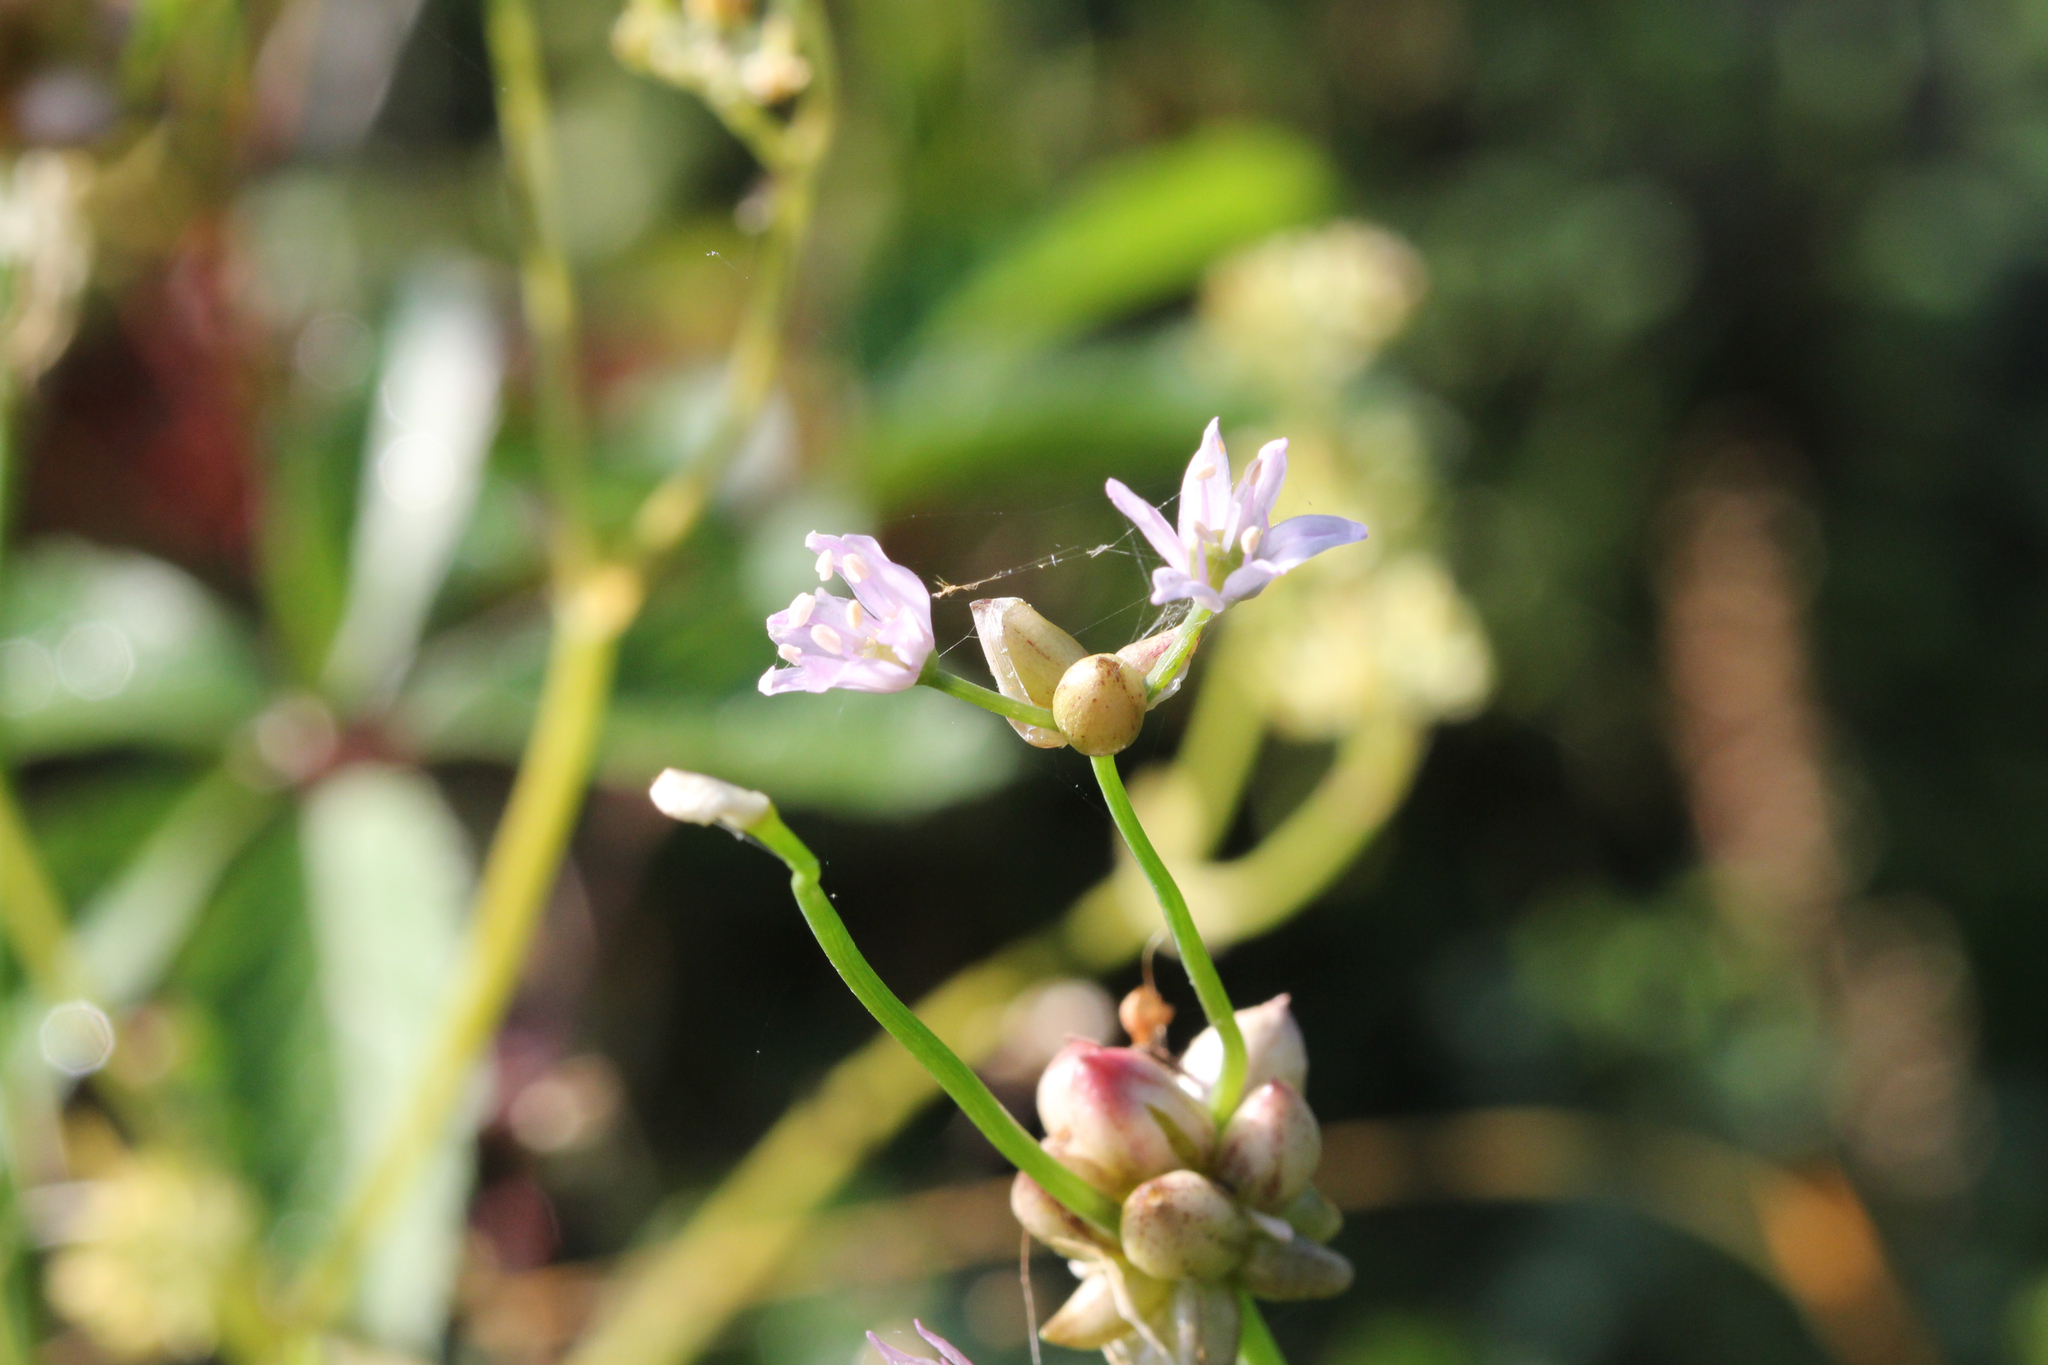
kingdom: Plantae
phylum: Tracheophyta
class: Liliopsida
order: Asparagales
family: Amaryllidaceae
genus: Allium
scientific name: Allium canadense
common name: Meadow garlic
